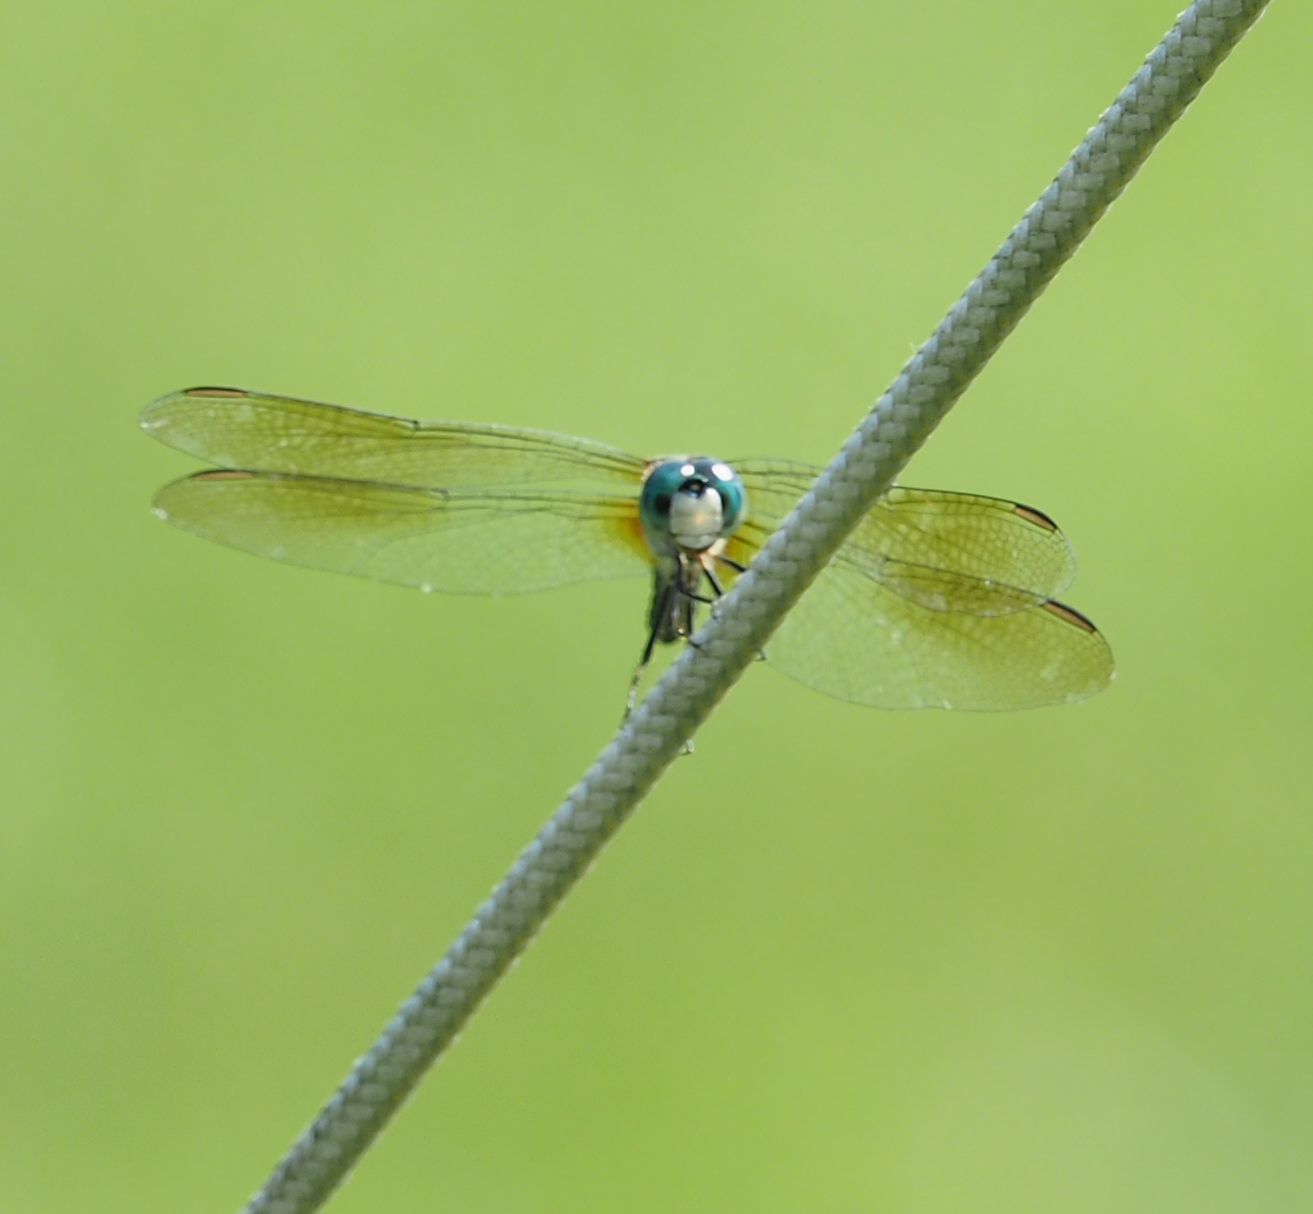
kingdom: Animalia
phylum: Arthropoda
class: Insecta
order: Odonata
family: Libellulidae
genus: Pachydiplax
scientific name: Pachydiplax longipennis
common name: Blue dasher
